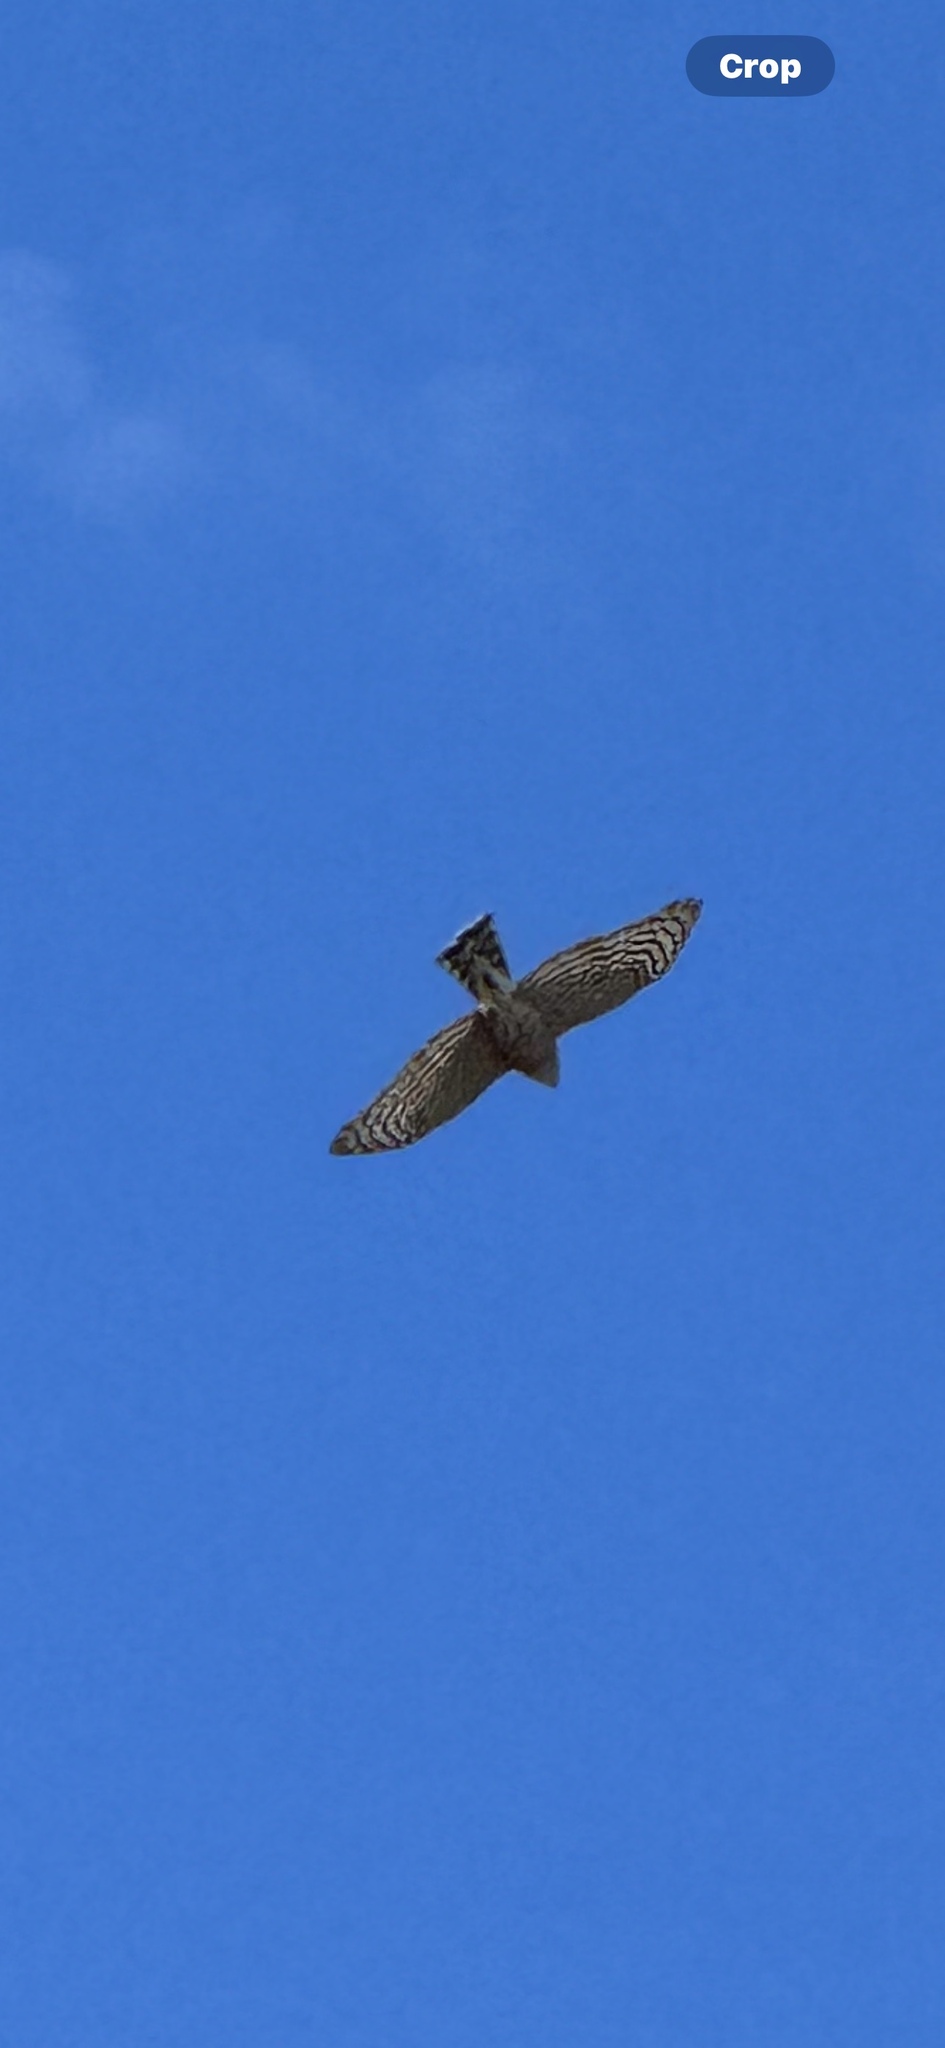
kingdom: Animalia
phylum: Chordata
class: Aves
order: Accipitriformes
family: Accipitridae
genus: Accipiter
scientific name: Accipiter striatus
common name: Sharp-shinned hawk
